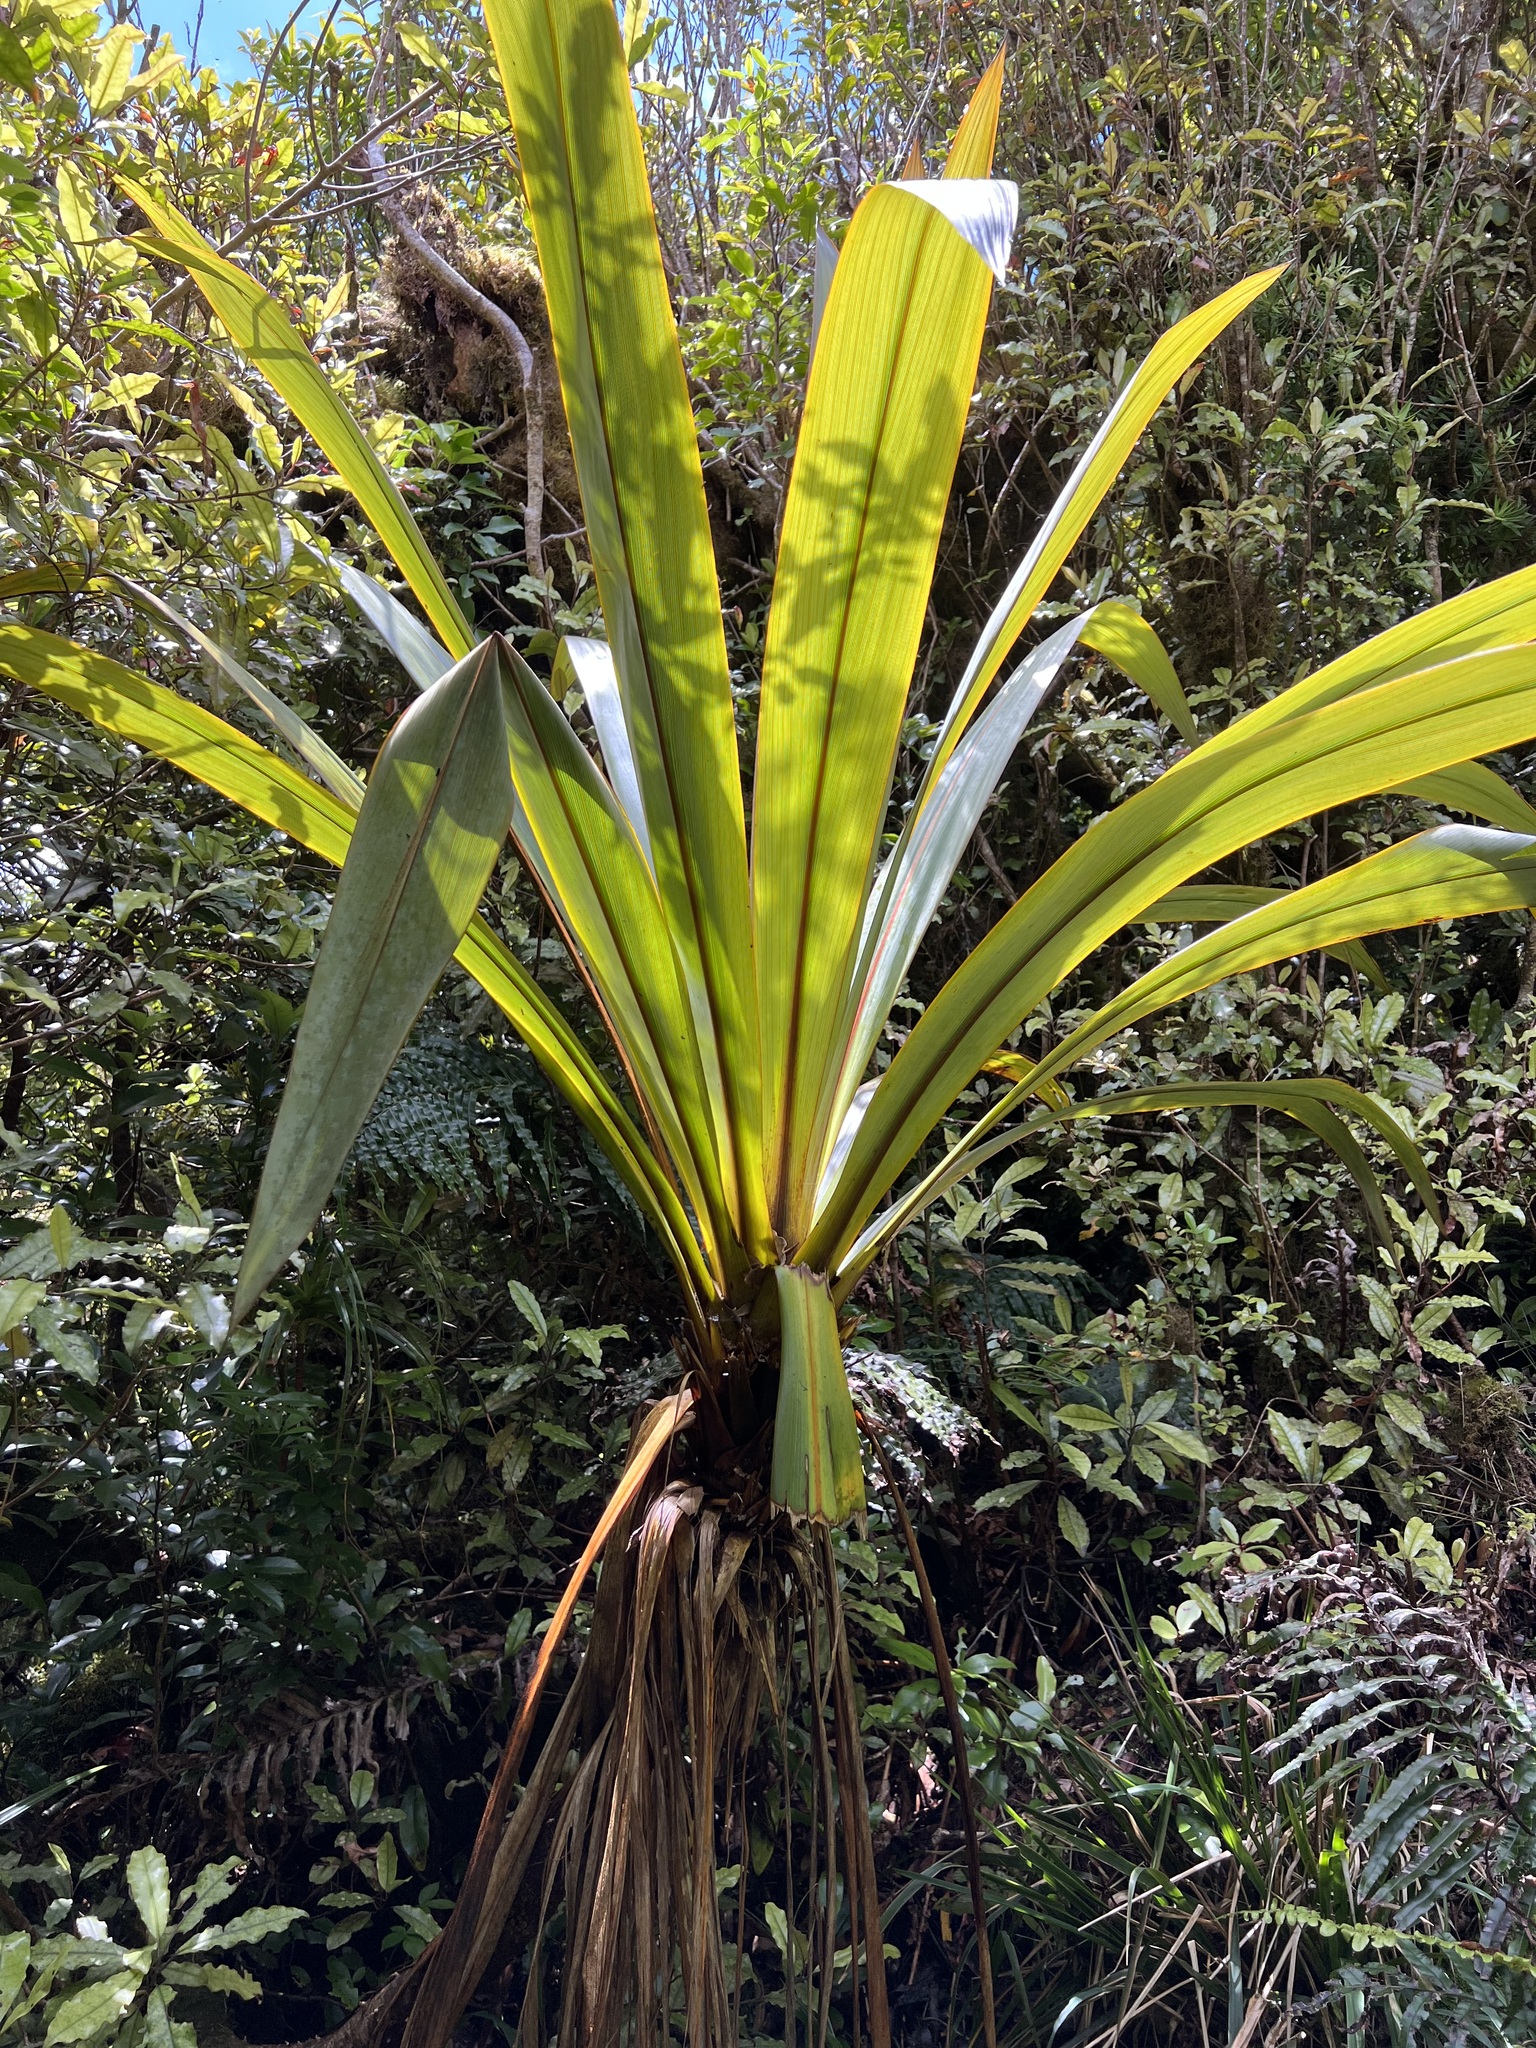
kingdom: Plantae
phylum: Tracheophyta
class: Liliopsida
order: Asparagales
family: Asparagaceae
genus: Cordyline
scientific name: Cordyline indivisa
